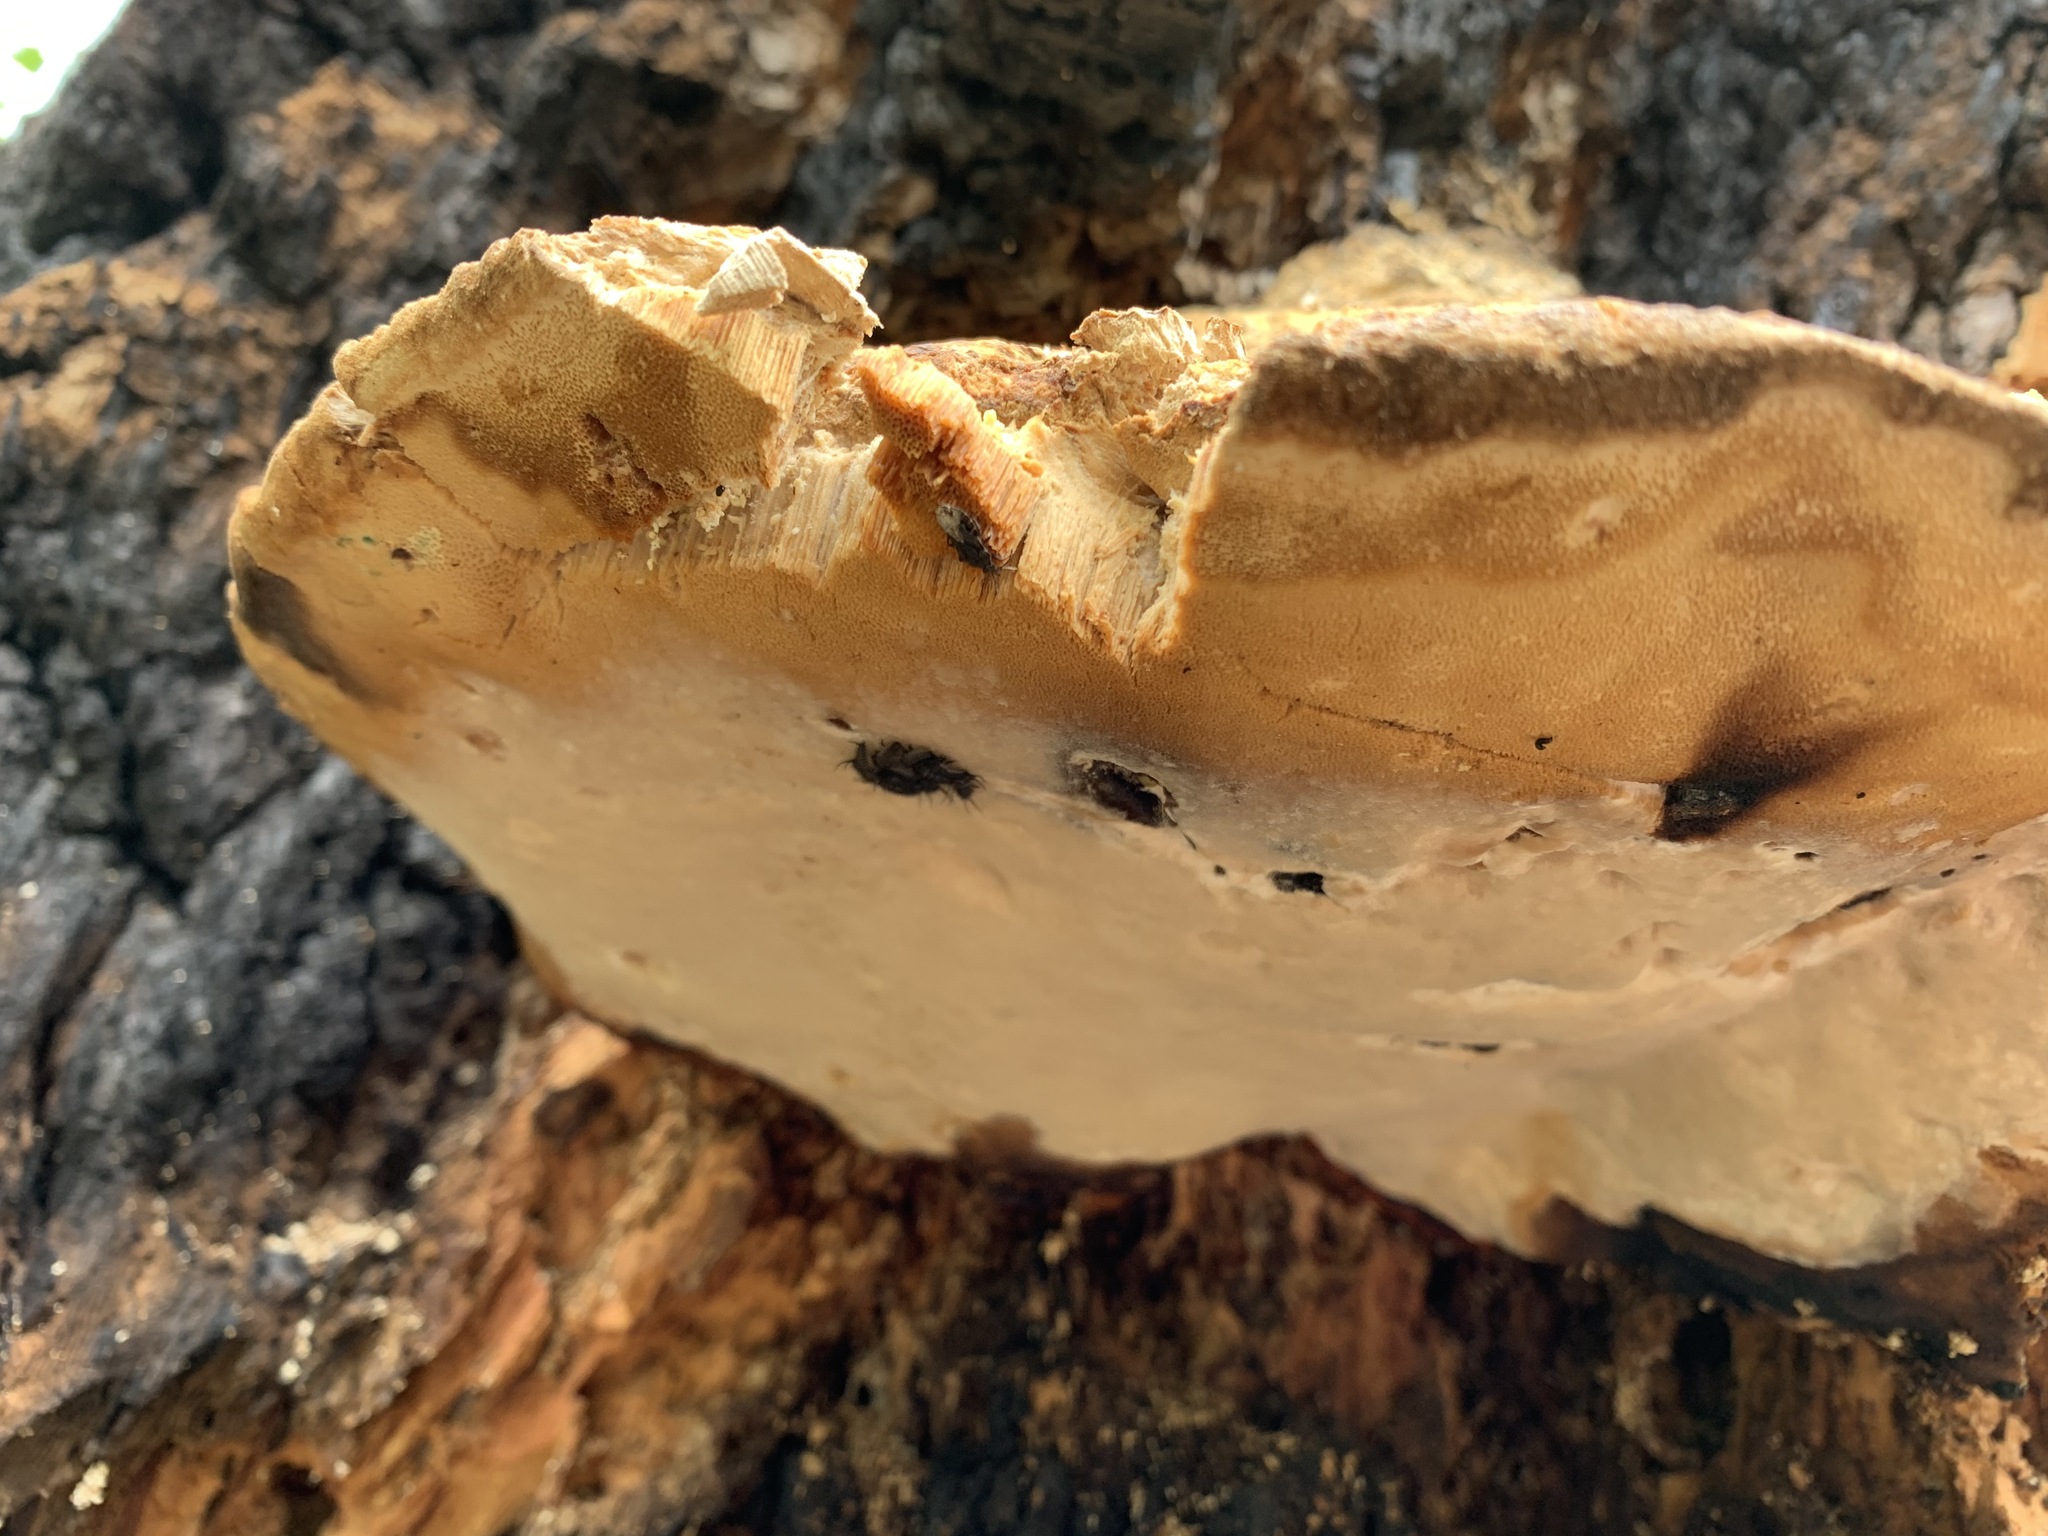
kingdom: Animalia
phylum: Arthropoda
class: Insecta
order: Coleoptera
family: Erotylidae
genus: Gibbifer
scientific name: Gibbifer californicus
